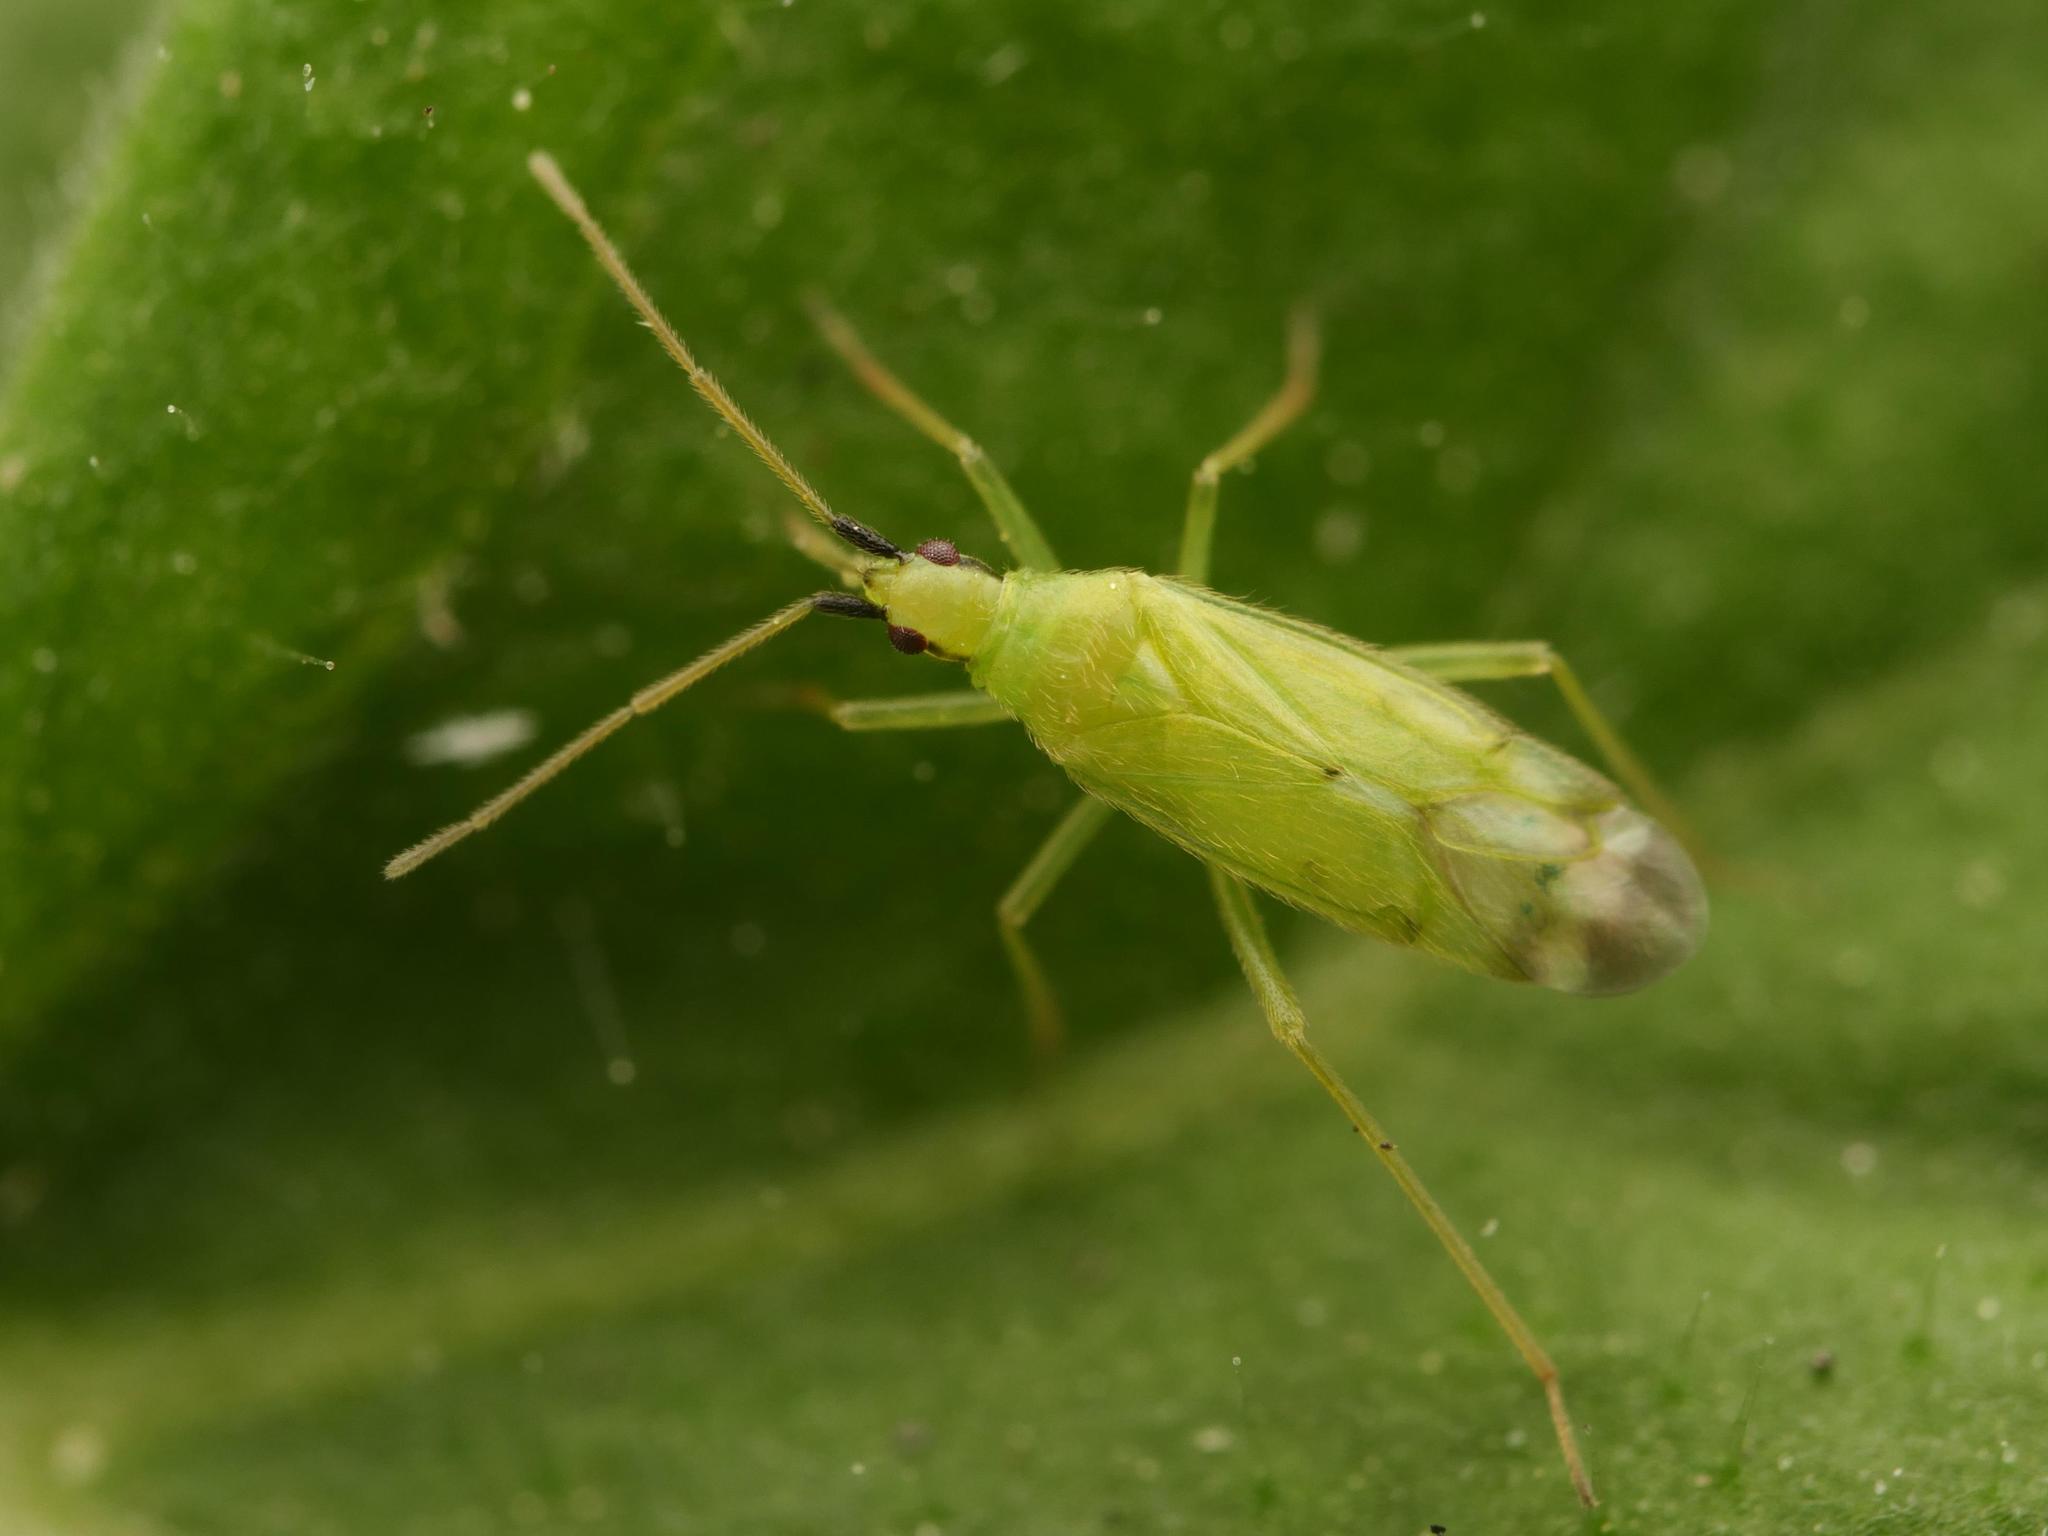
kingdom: Animalia
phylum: Arthropoda
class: Insecta
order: Hemiptera
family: Miridae
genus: Macrolophus
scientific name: Macrolophus pygmaeus
